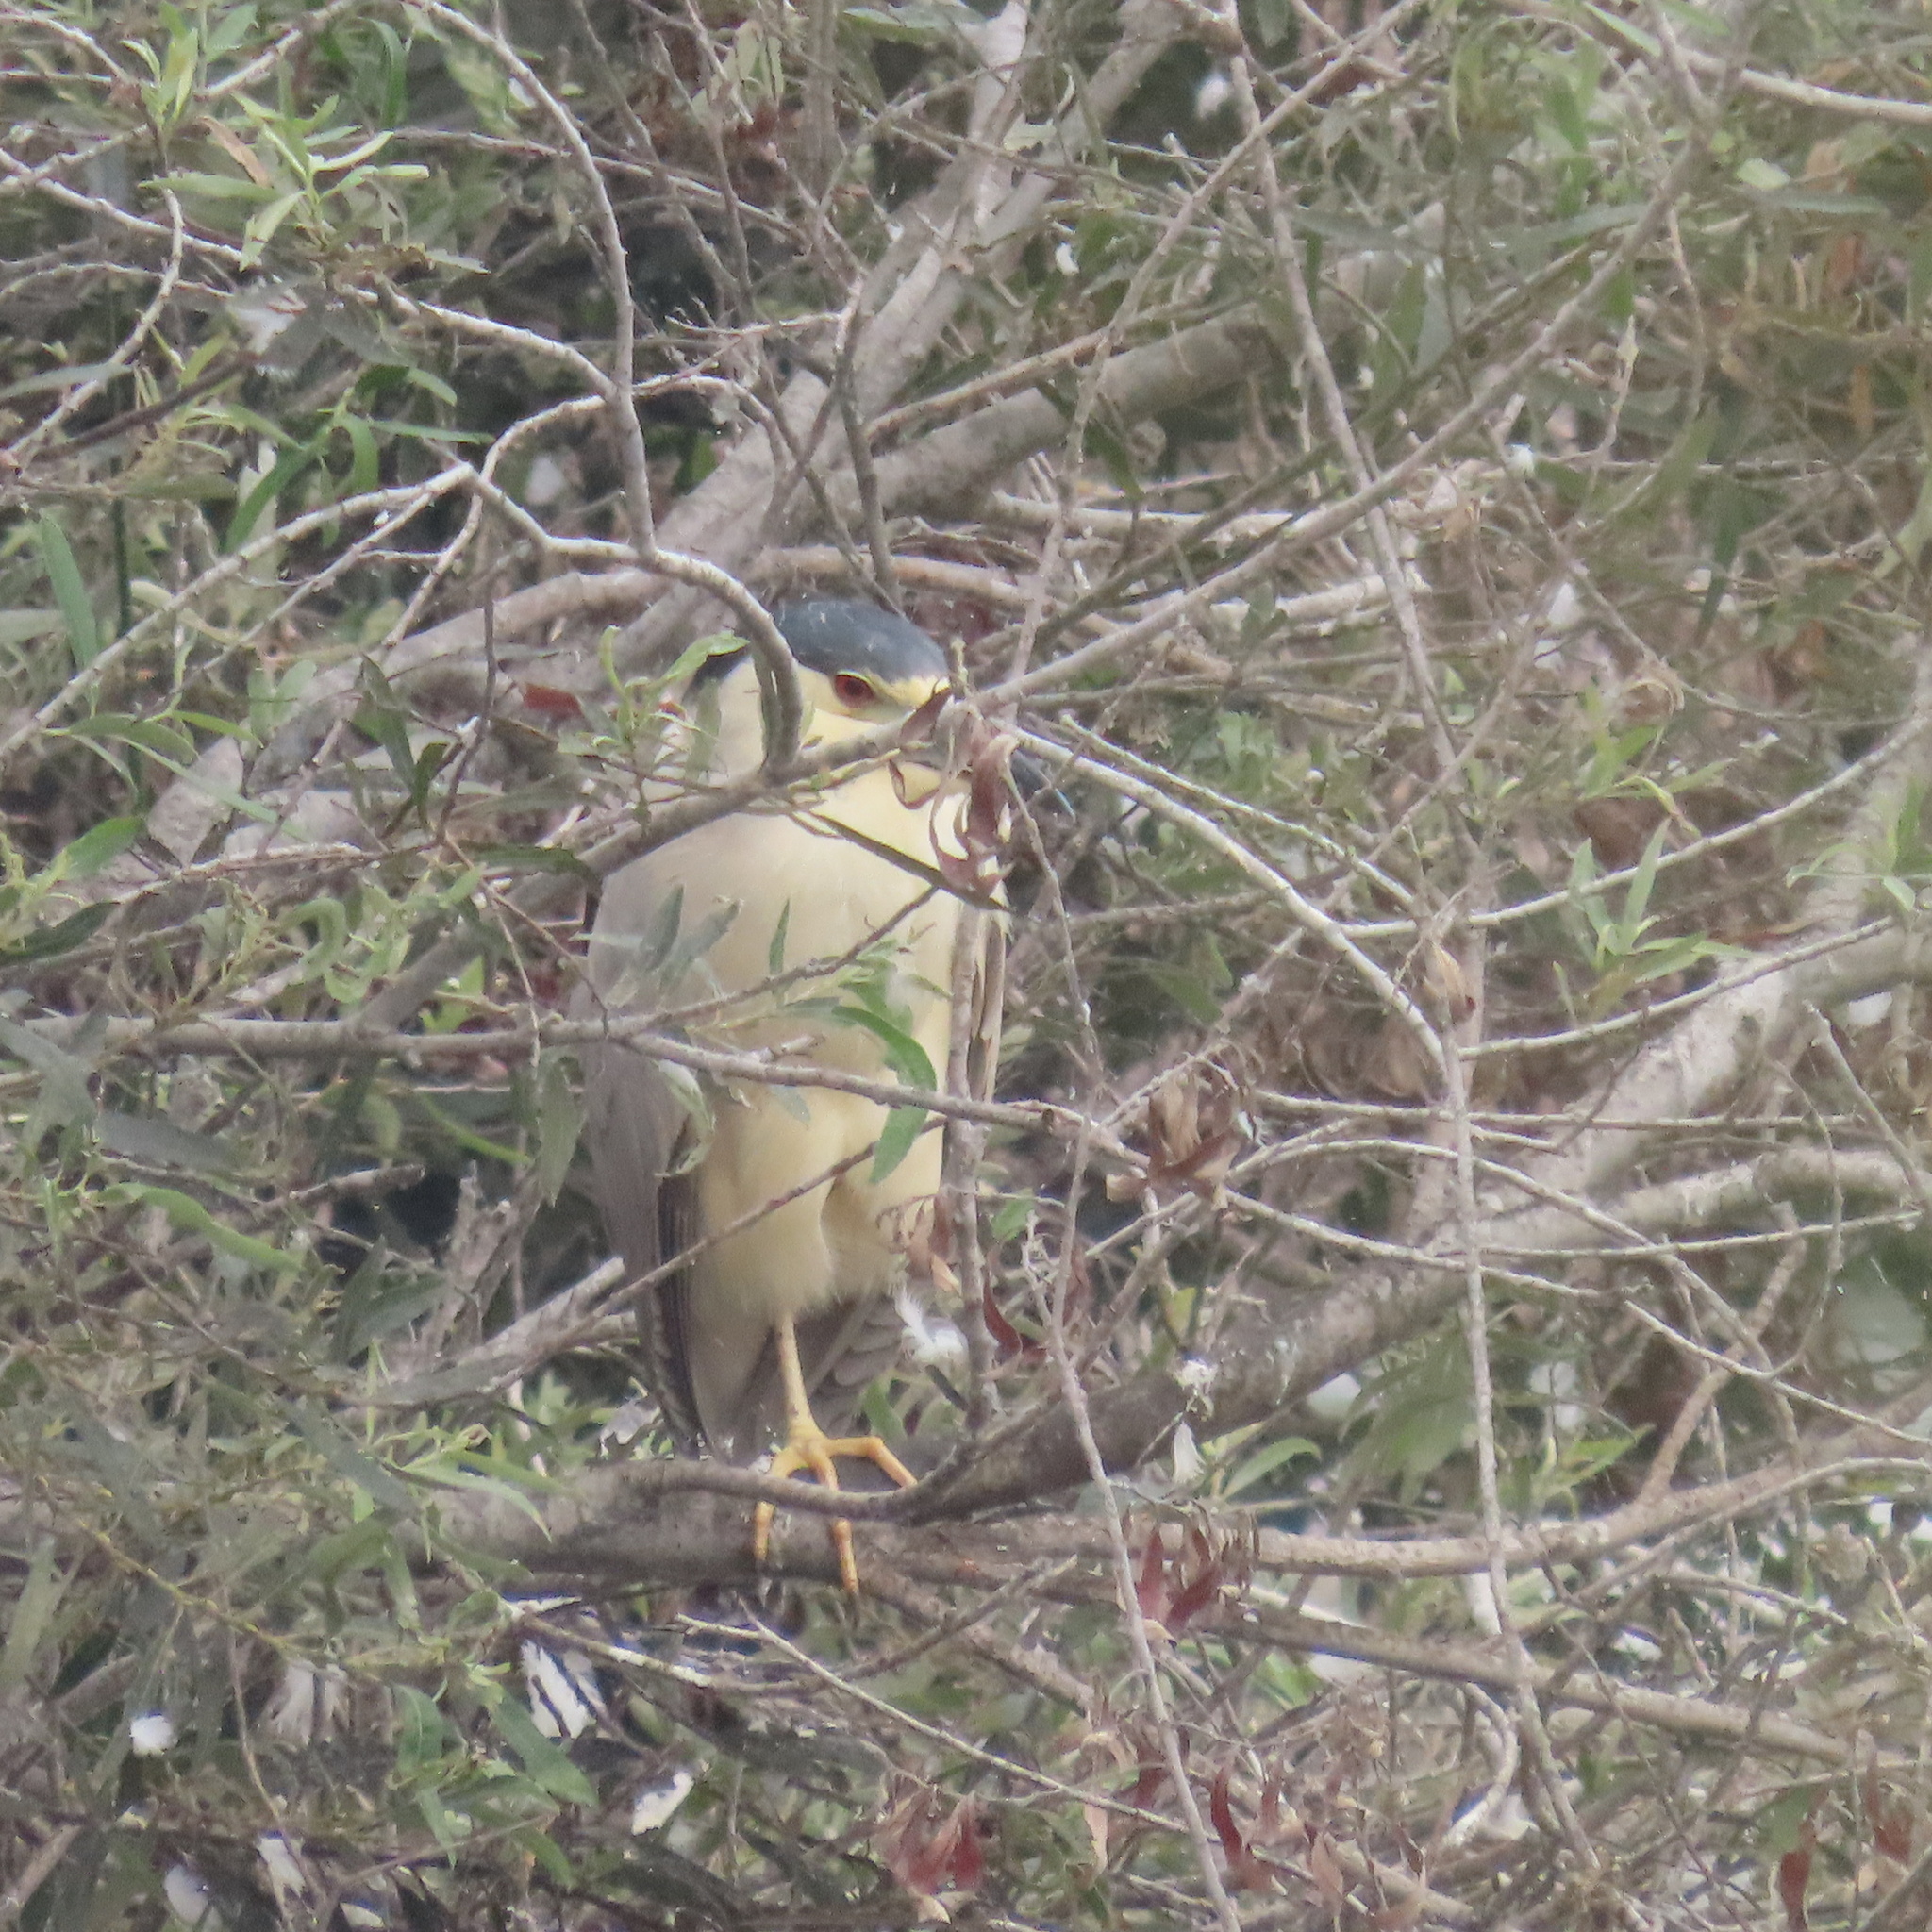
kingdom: Animalia
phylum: Chordata
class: Aves
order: Pelecaniformes
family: Ardeidae
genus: Nycticorax
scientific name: Nycticorax nycticorax
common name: Black-crowned night heron
